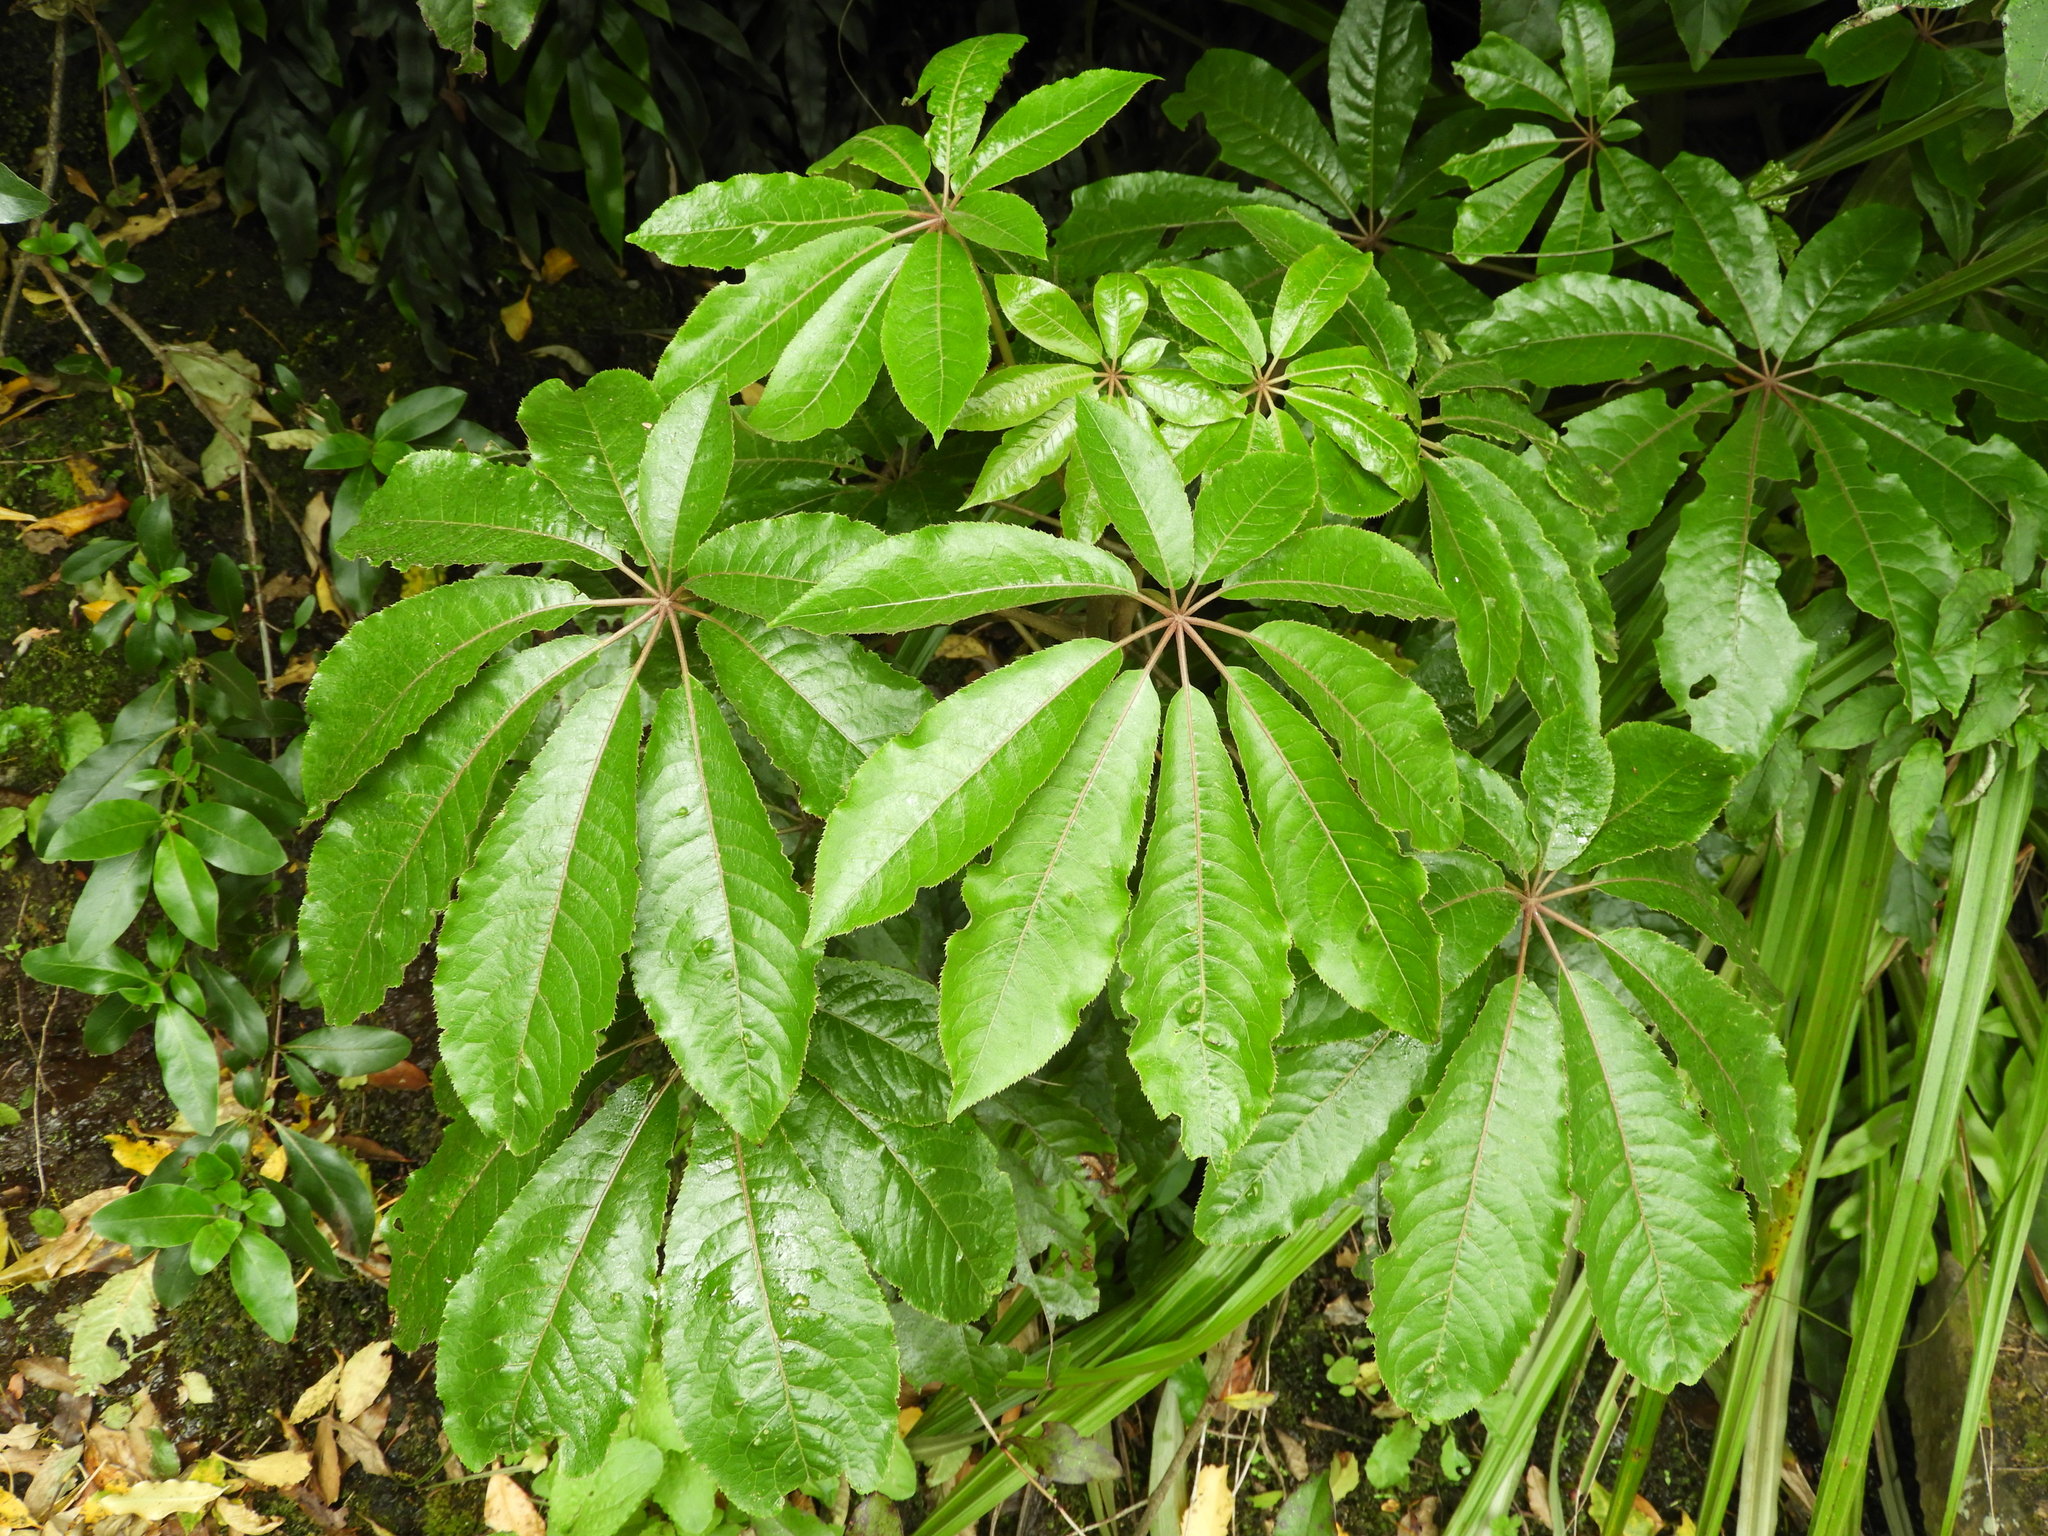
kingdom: Plantae
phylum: Tracheophyta
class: Magnoliopsida
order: Apiales
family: Araliaceae
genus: Schefflera
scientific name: Schefflera digitata
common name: Pate
